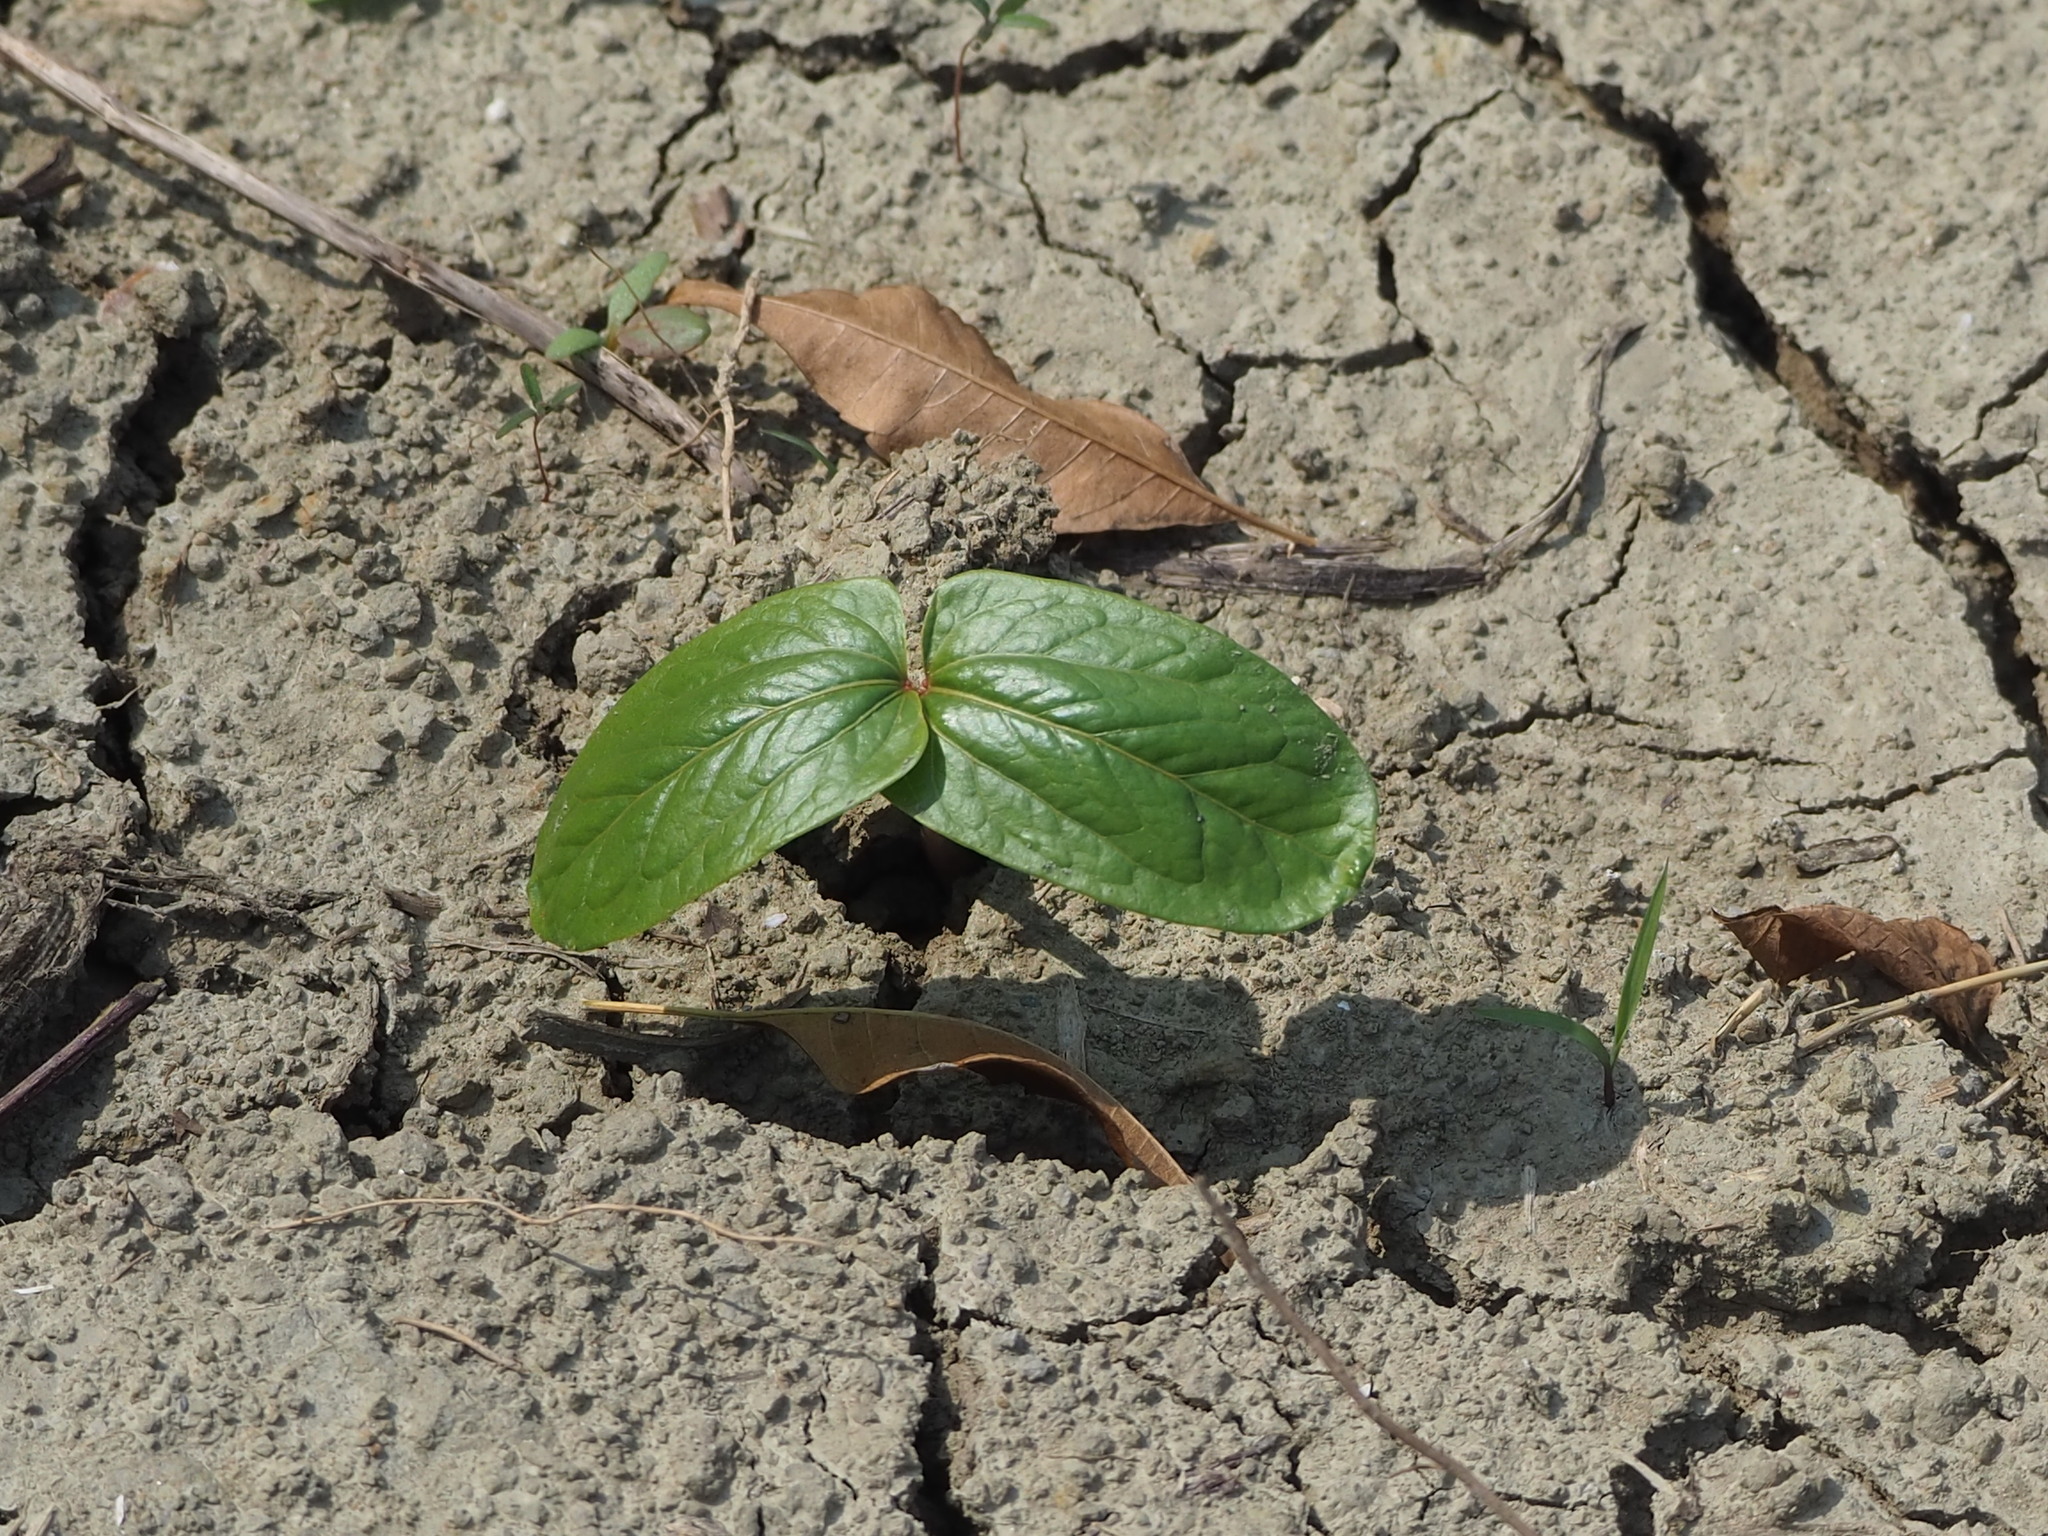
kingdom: Plantae
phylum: Tracheophyta
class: Magnoliopsida
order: Malpighiales
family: Euphorbiaceae
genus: Ricinus
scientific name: Ricinus communis
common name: Castor-oil-plant
